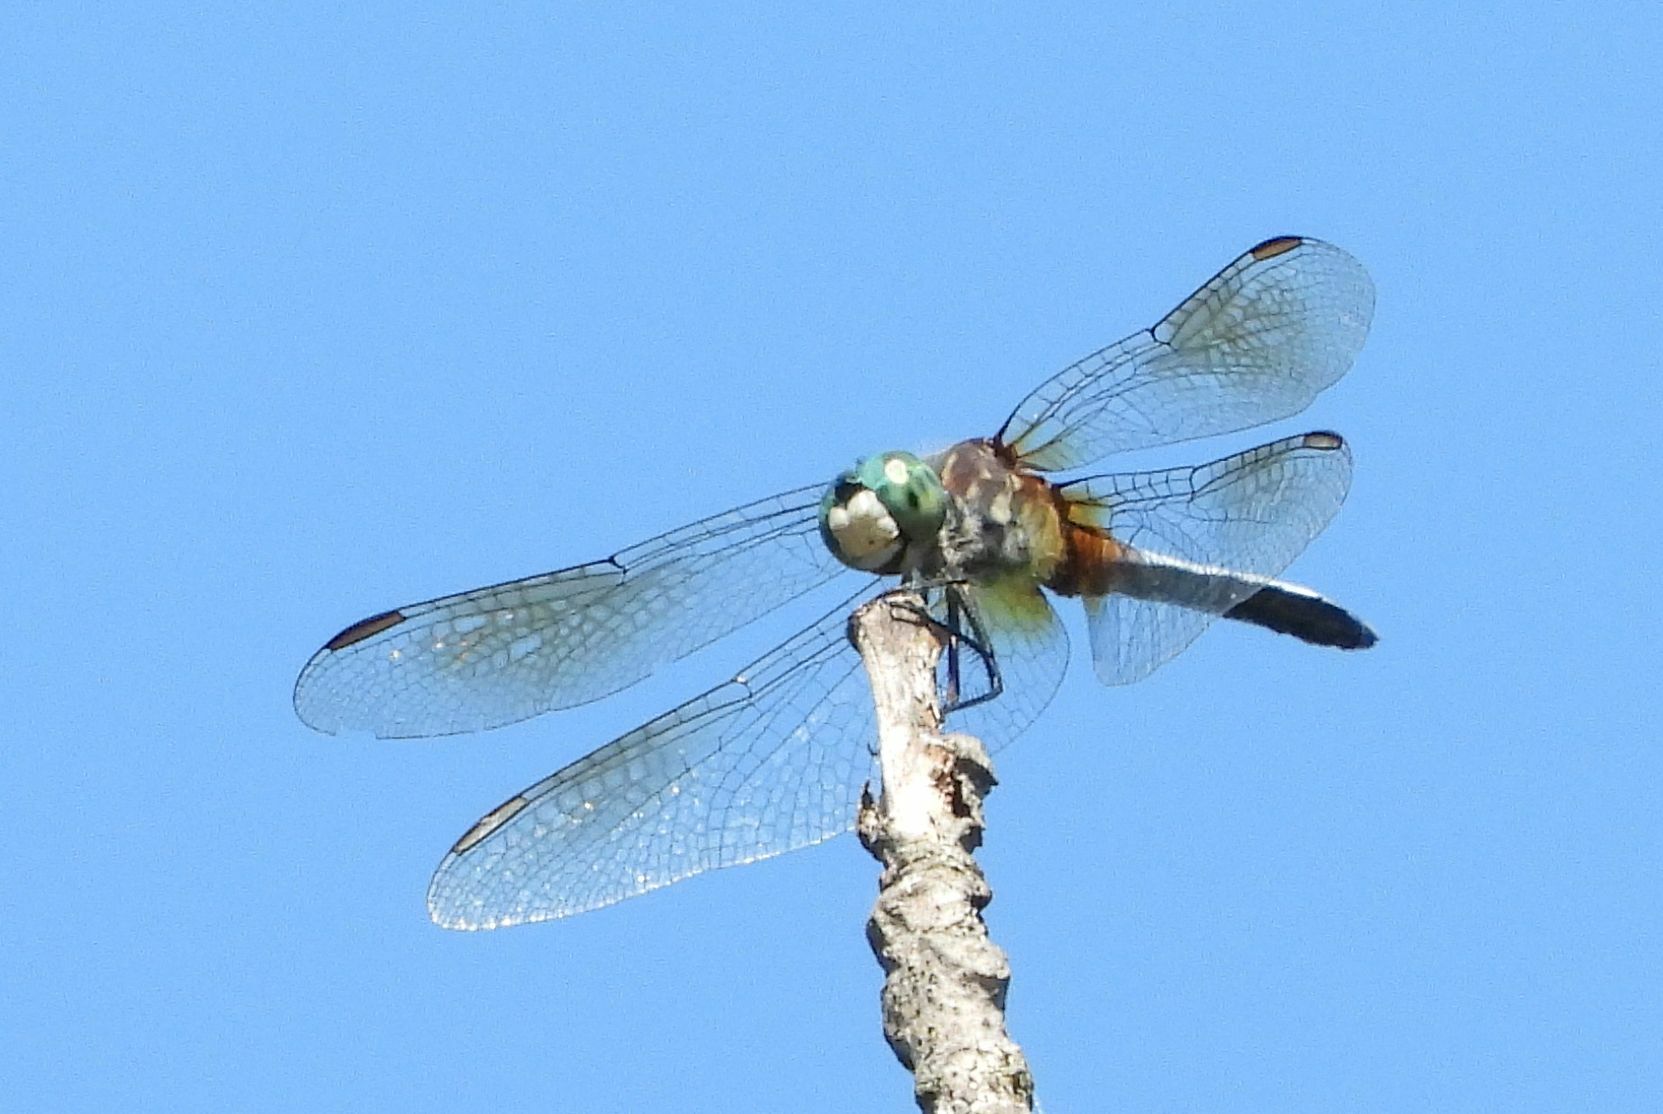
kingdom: Animalia
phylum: Arthropoda
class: Insecta
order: Odonata
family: Libellulidae
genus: Pachydiplax
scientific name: Pachydiplax longipennis
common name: Blue dasher
